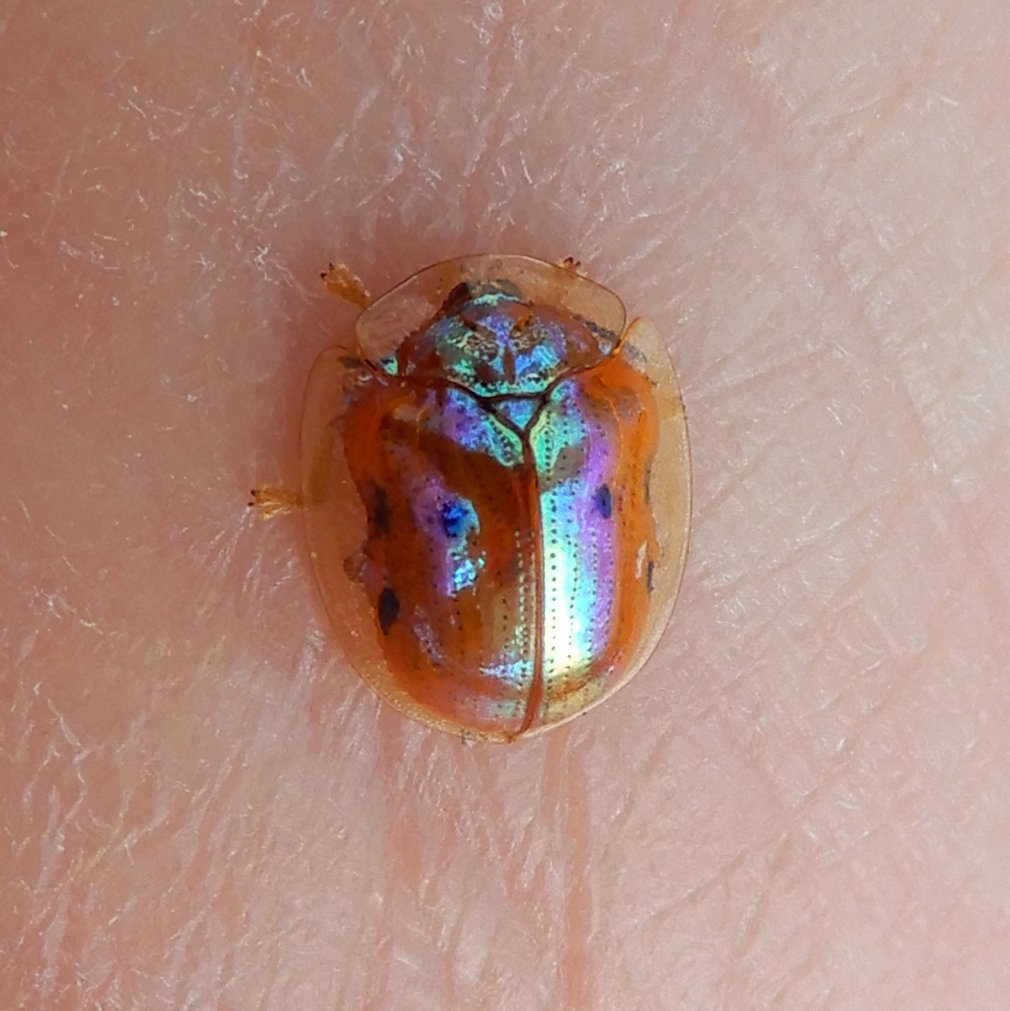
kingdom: Animalia
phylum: Arthropoda
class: Insecta
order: Coleoptera
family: Chrysomelidae
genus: Charidotella
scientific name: Charidotella sexpunctata
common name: Golden tortoise beetle
